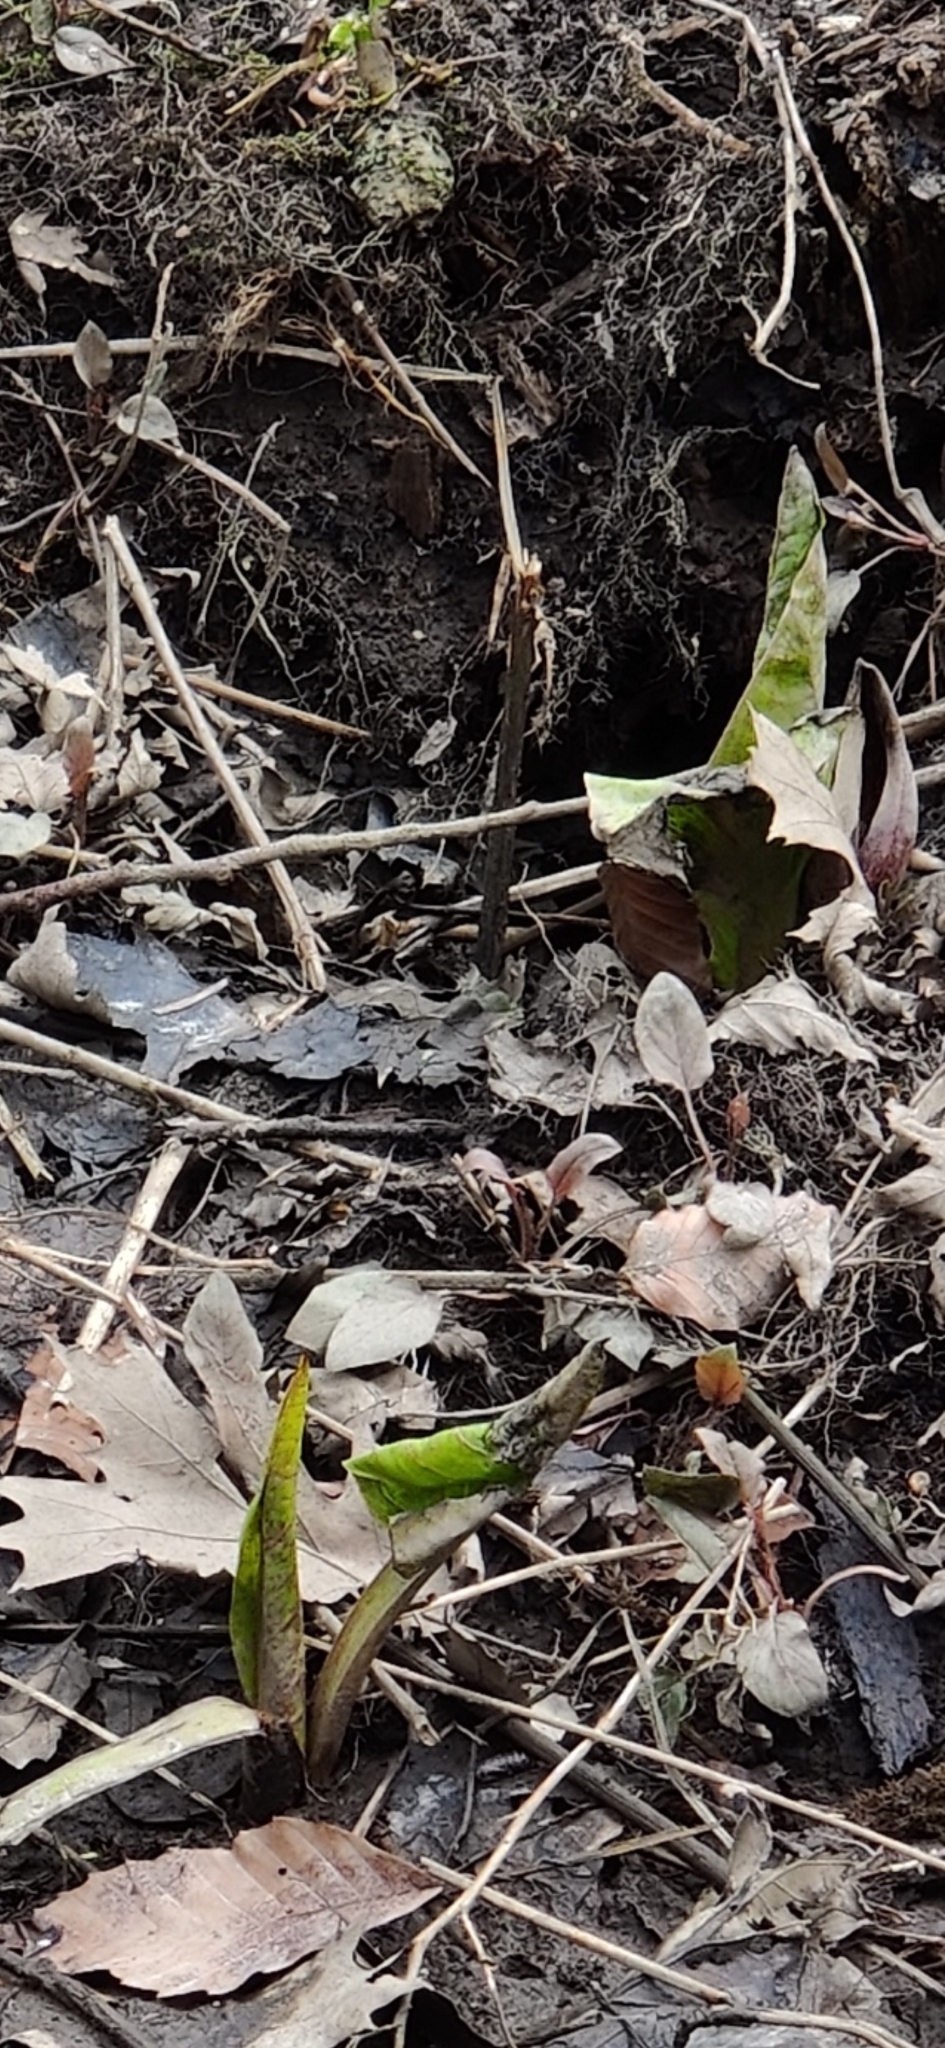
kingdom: Plantae
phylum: Tracheophyta
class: Liliopsida
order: Alismatales
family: Araceae
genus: Symplocarpus
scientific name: Symplocarpus foetidus
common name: Eastern skunk cabbage
